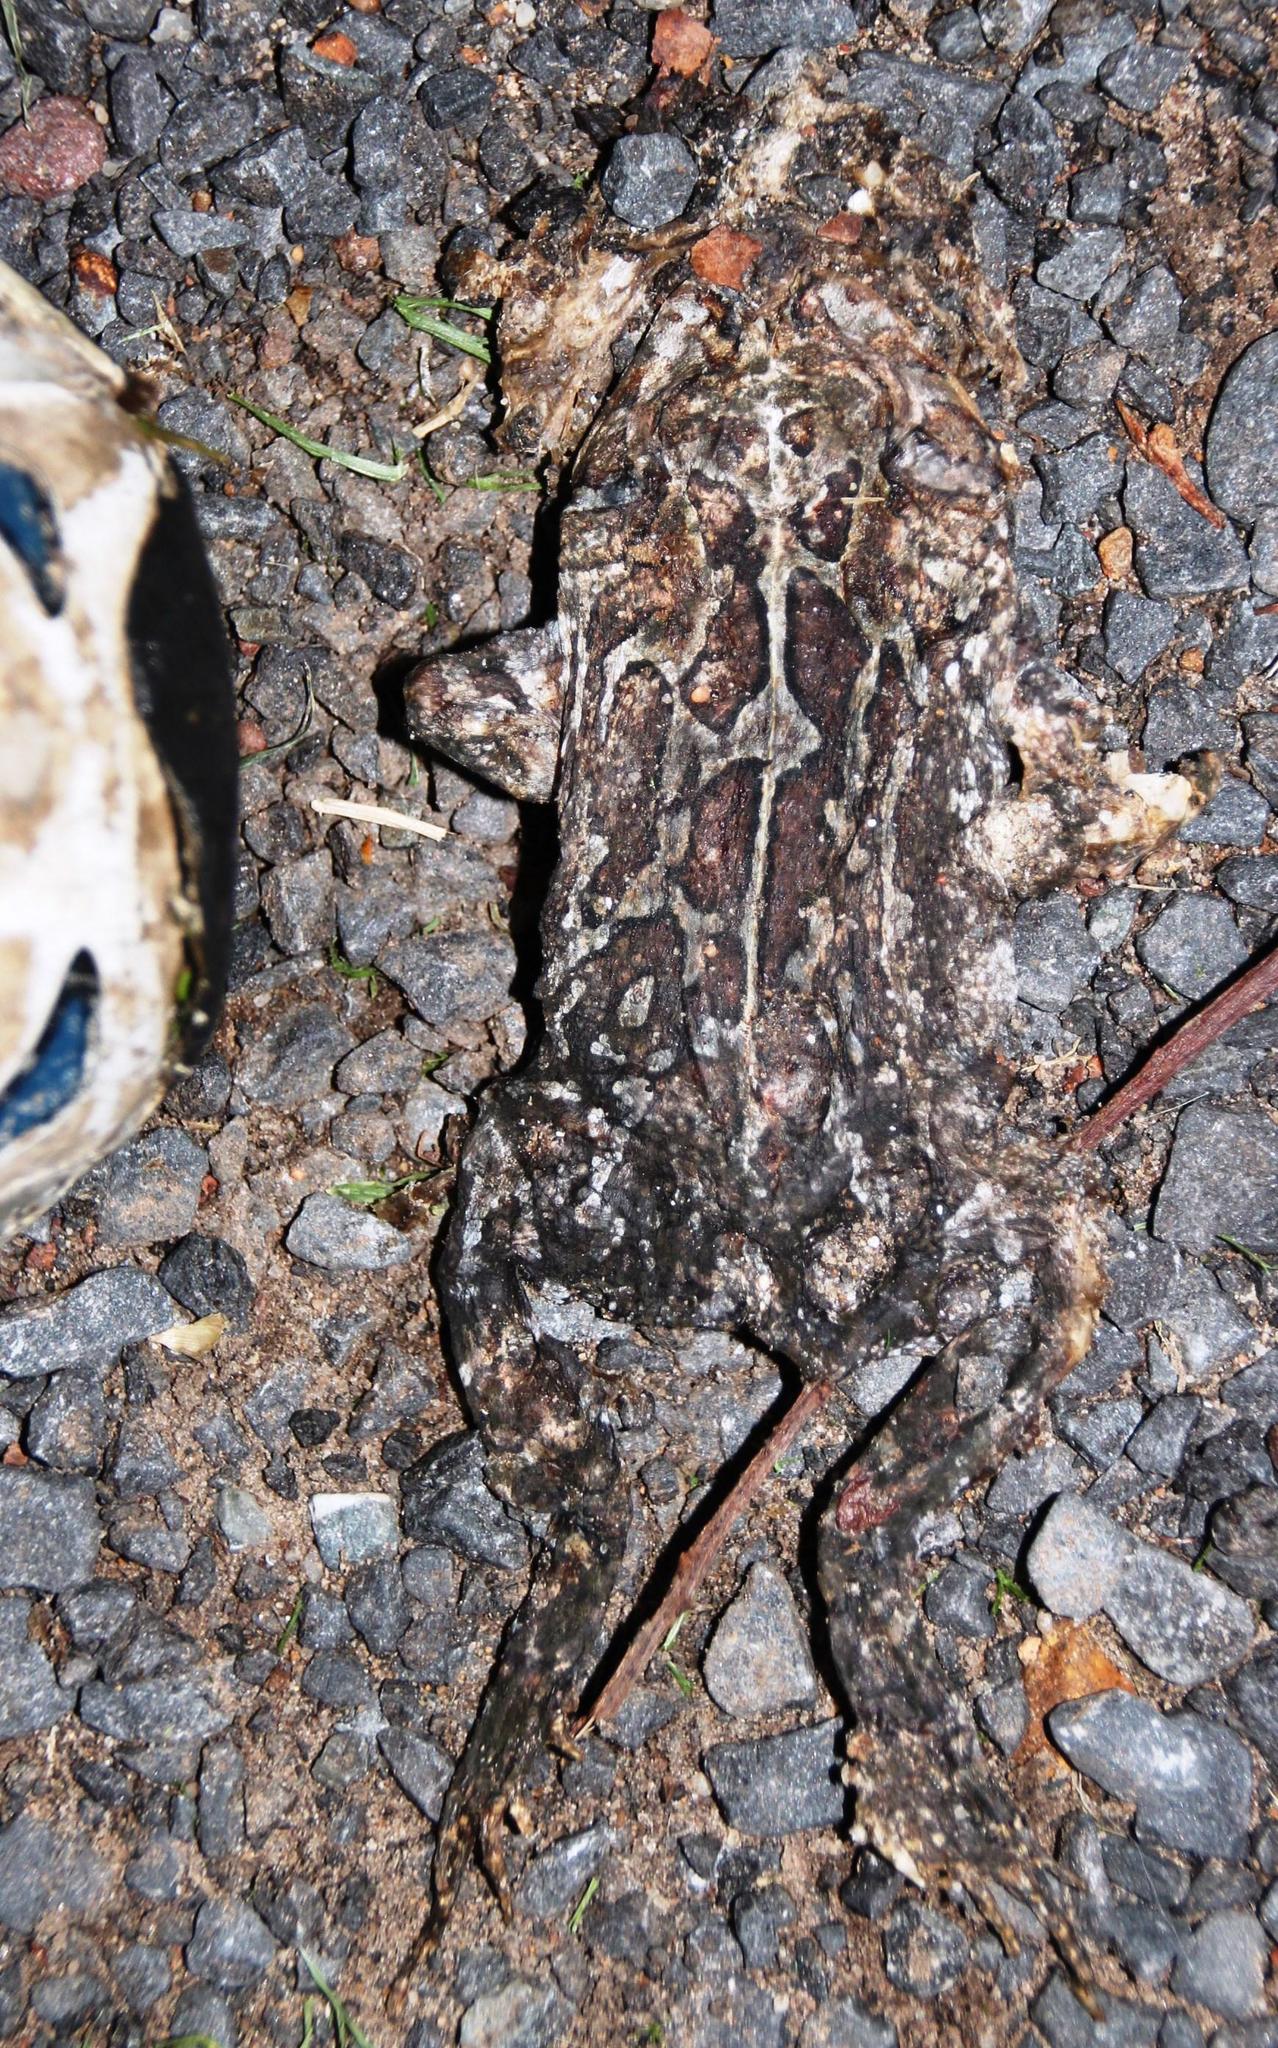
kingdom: Animalia
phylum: Chordata
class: Amphibia
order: Anura
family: Bufonidae
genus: Sclerophrys
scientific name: Sclerophrys pantherina
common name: Panther toad
